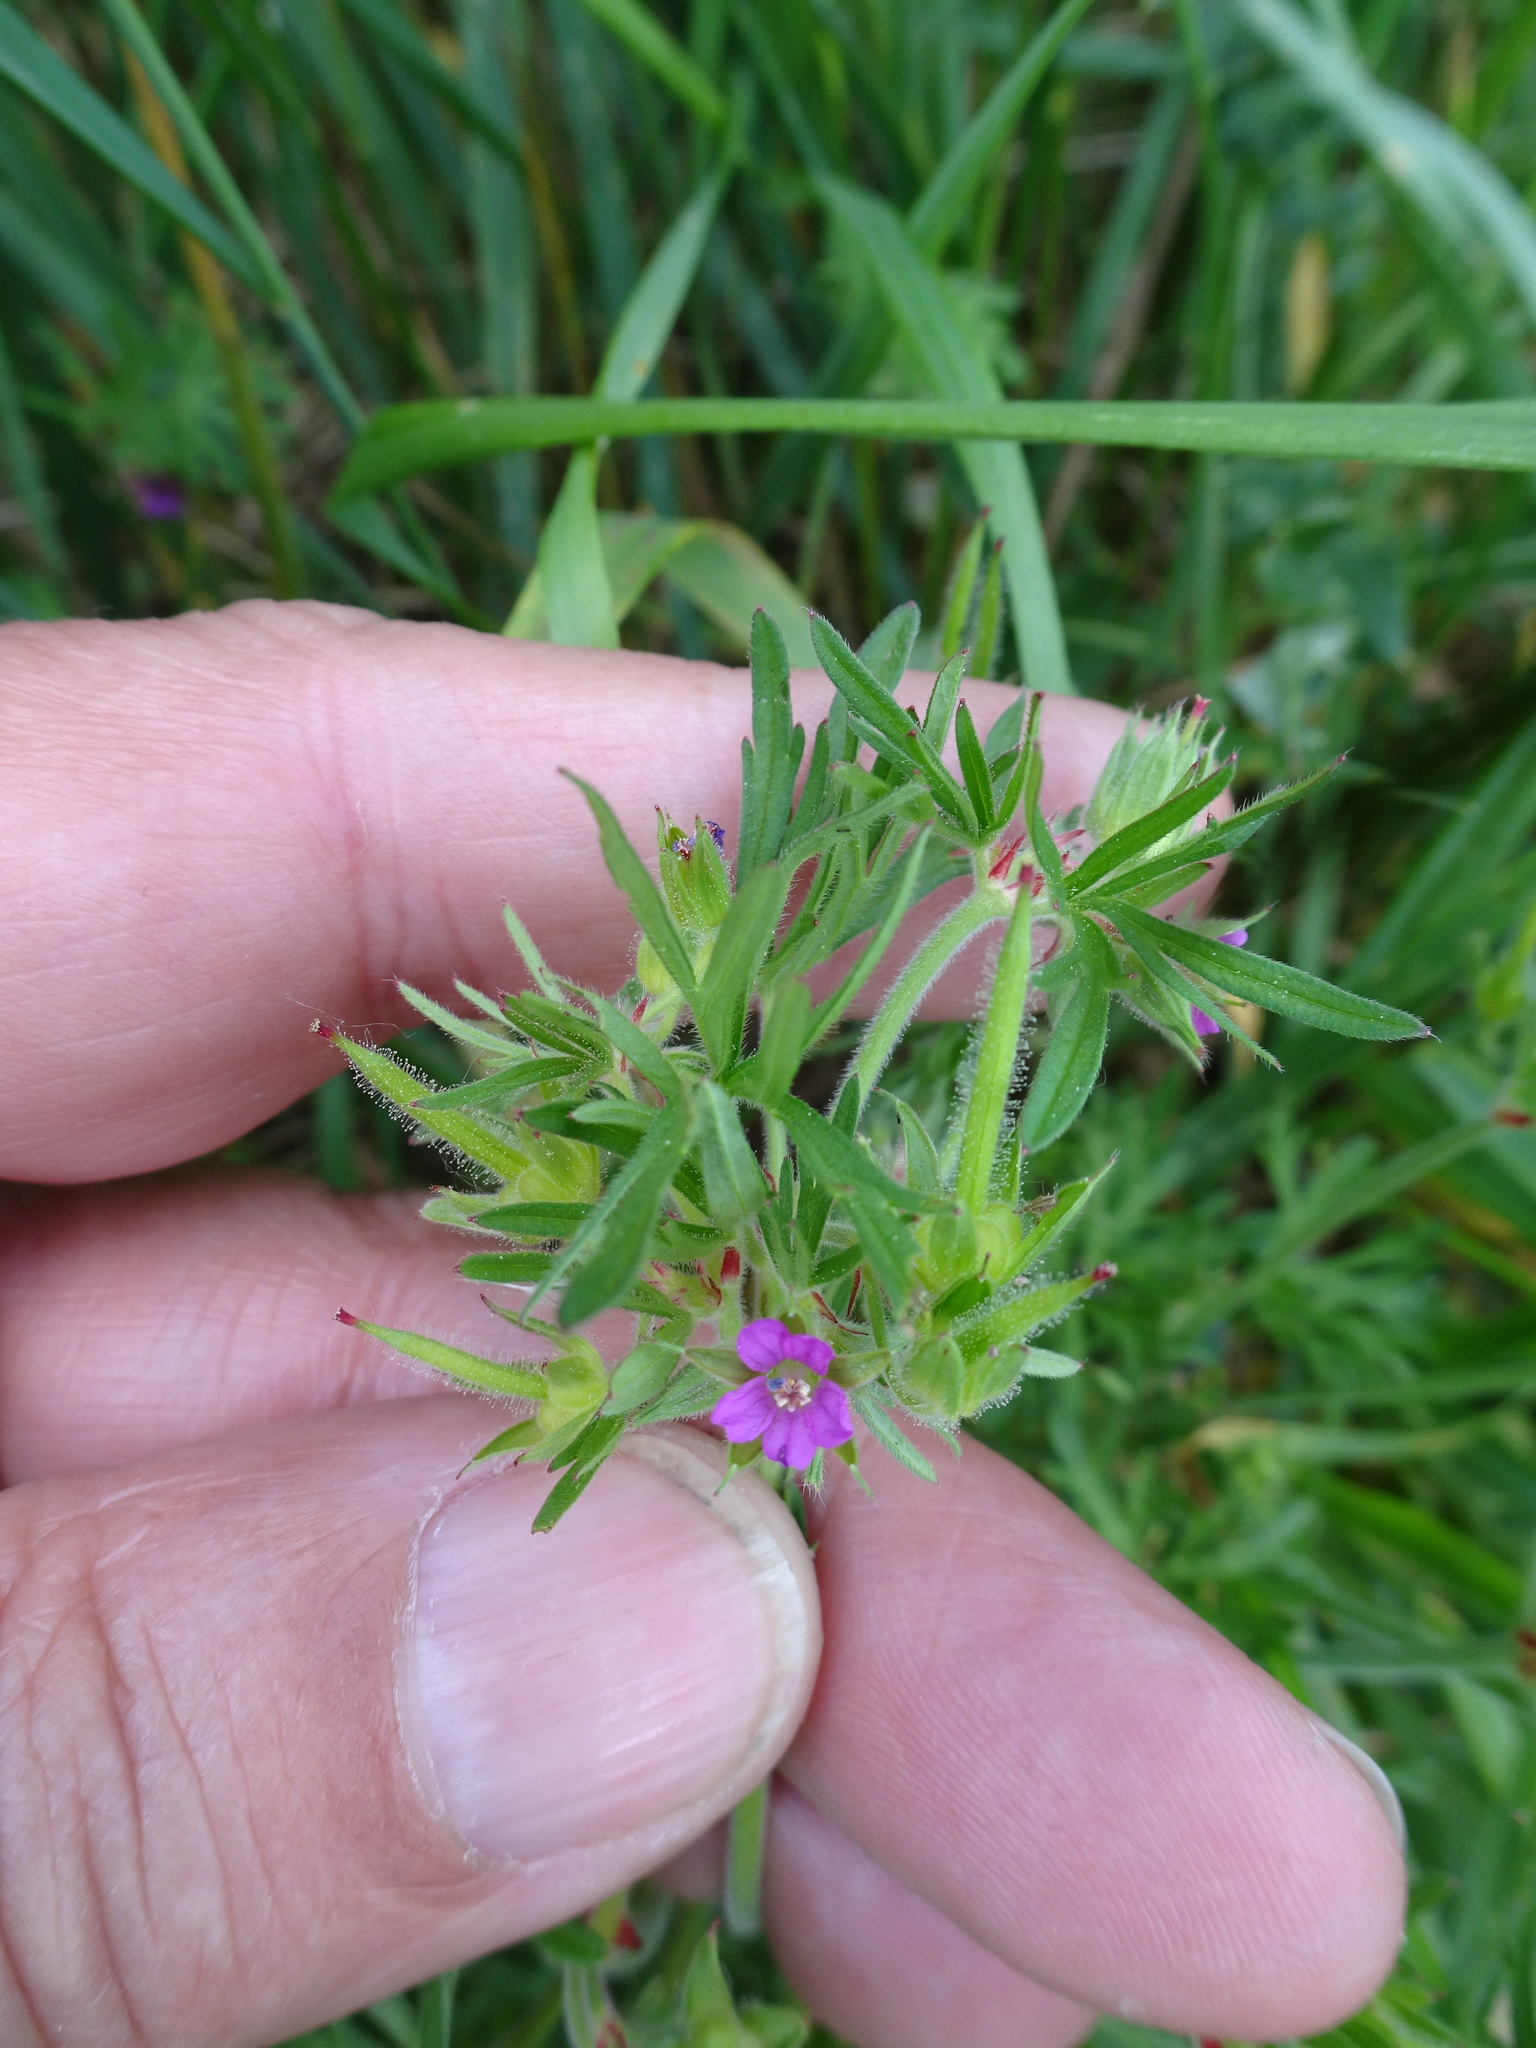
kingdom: Plantae
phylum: Tracheophyta
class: Magnoliopsida
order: Geraniales
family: Geraniaceae
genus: Geranium
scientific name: Geranium dissectum
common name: Cut-leaved crane's-bill
